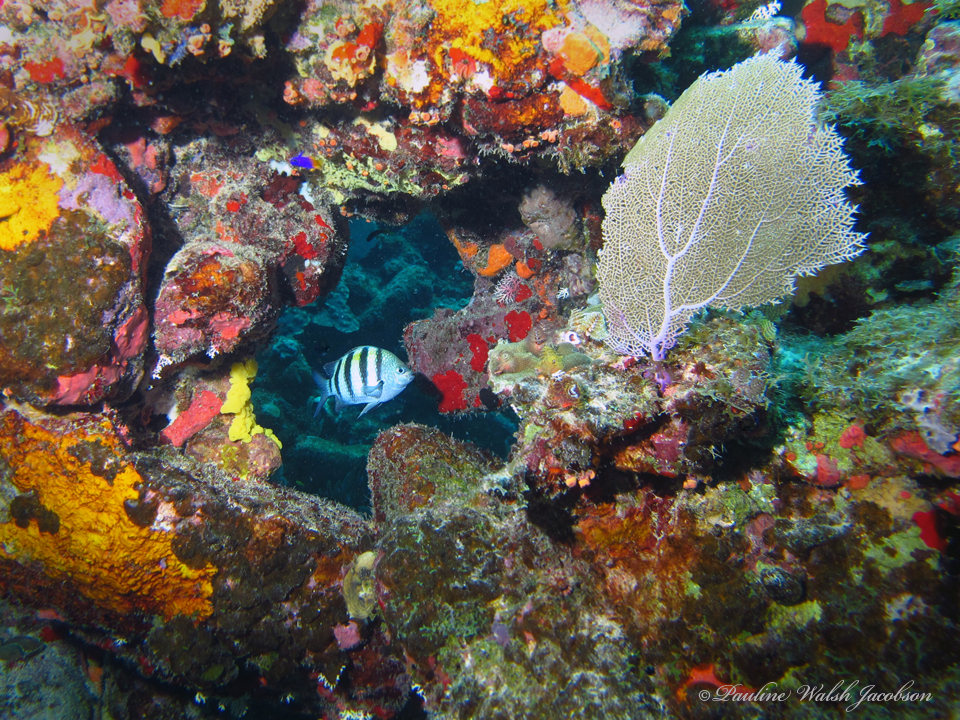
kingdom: Animalia
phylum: Chordata
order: Perciformes
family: Pomacentridae
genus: Abudefduf
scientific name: Abudefduf saxatilis
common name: Sergeant major
